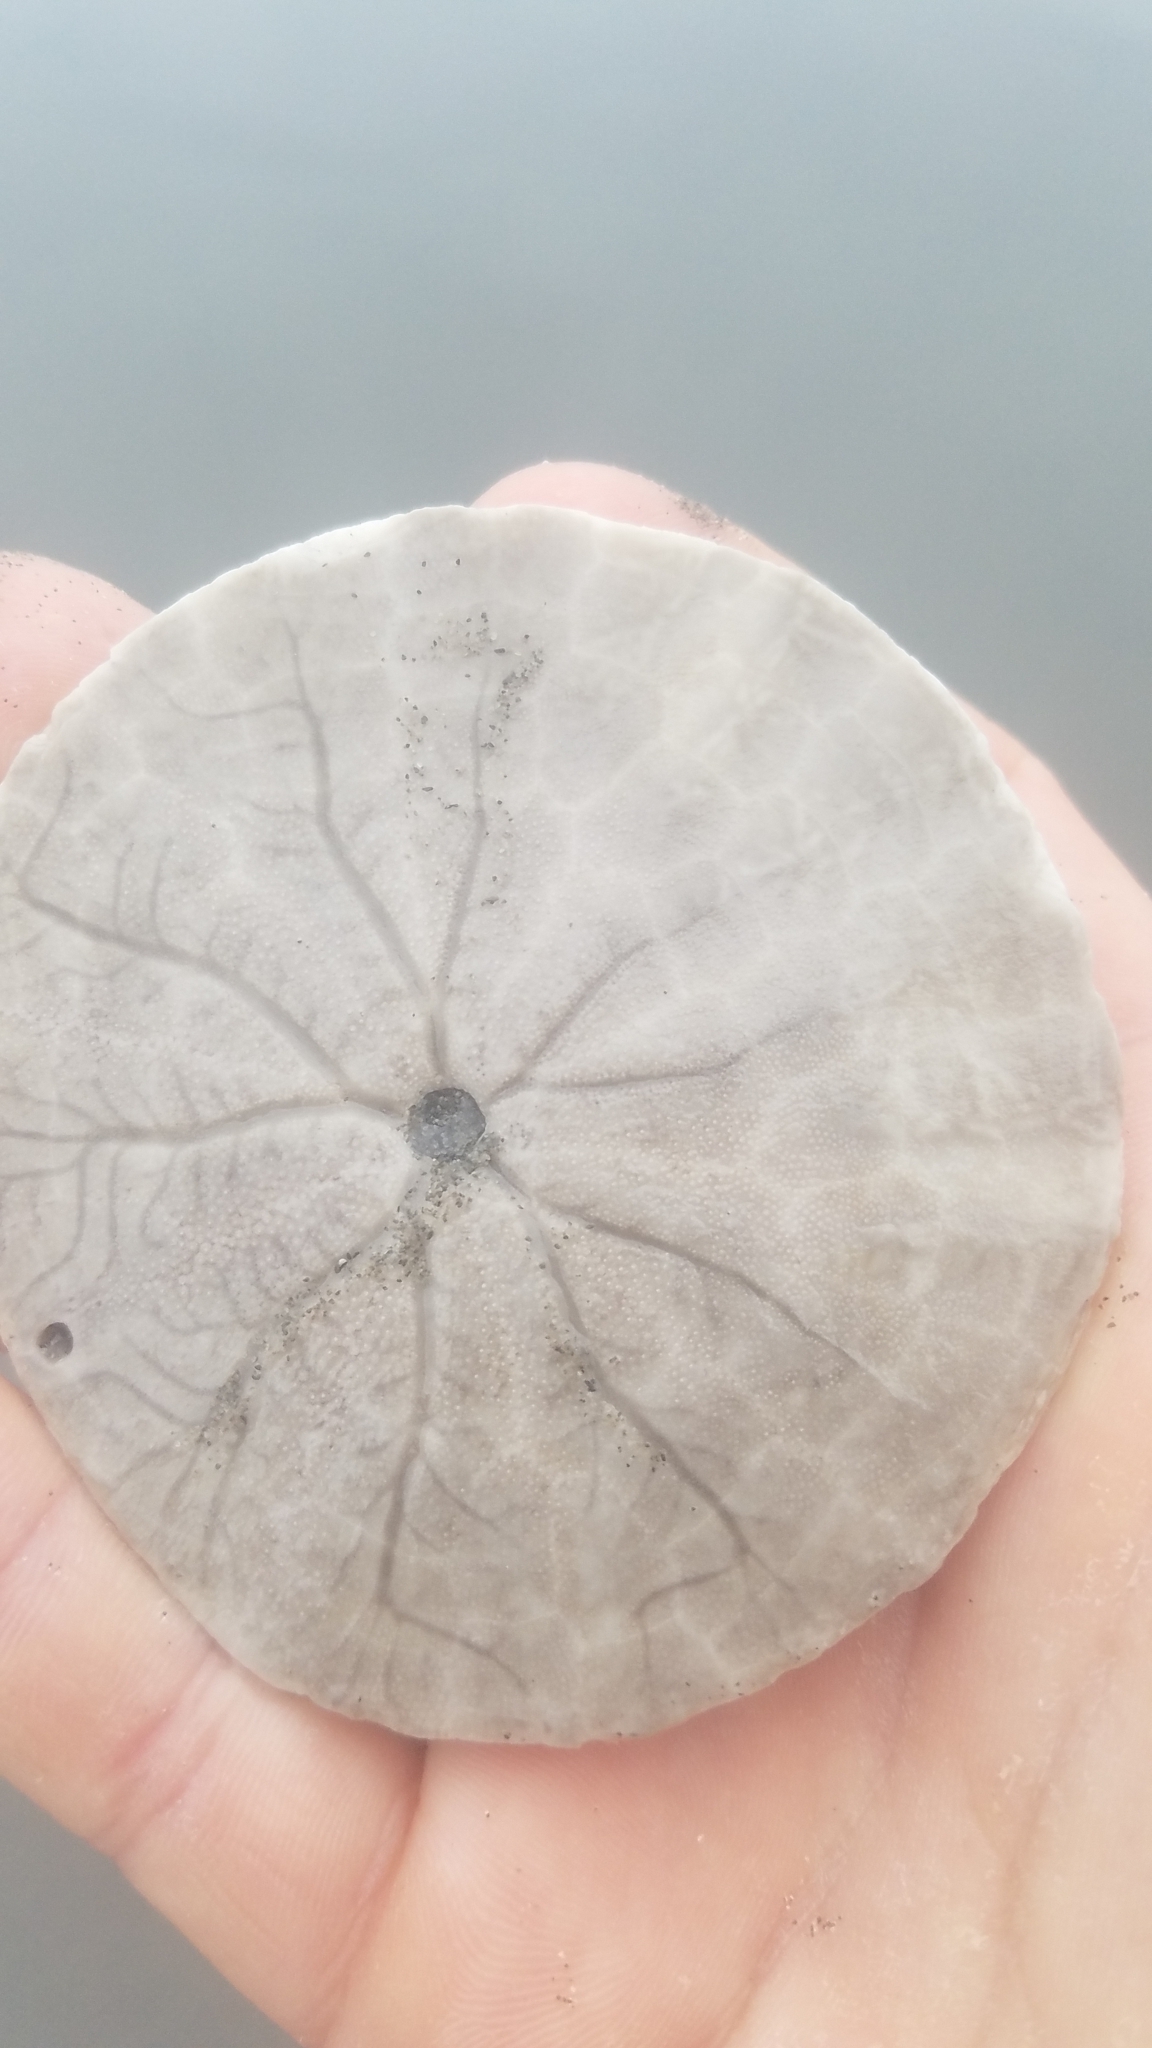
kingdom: Animalia
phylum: Echinodermata
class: Echinoidea
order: Echinolampadacea
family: Dendrasteridae
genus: Dendraster
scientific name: Dendraster excentricus
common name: Eccentric sand dollar sea urchin
